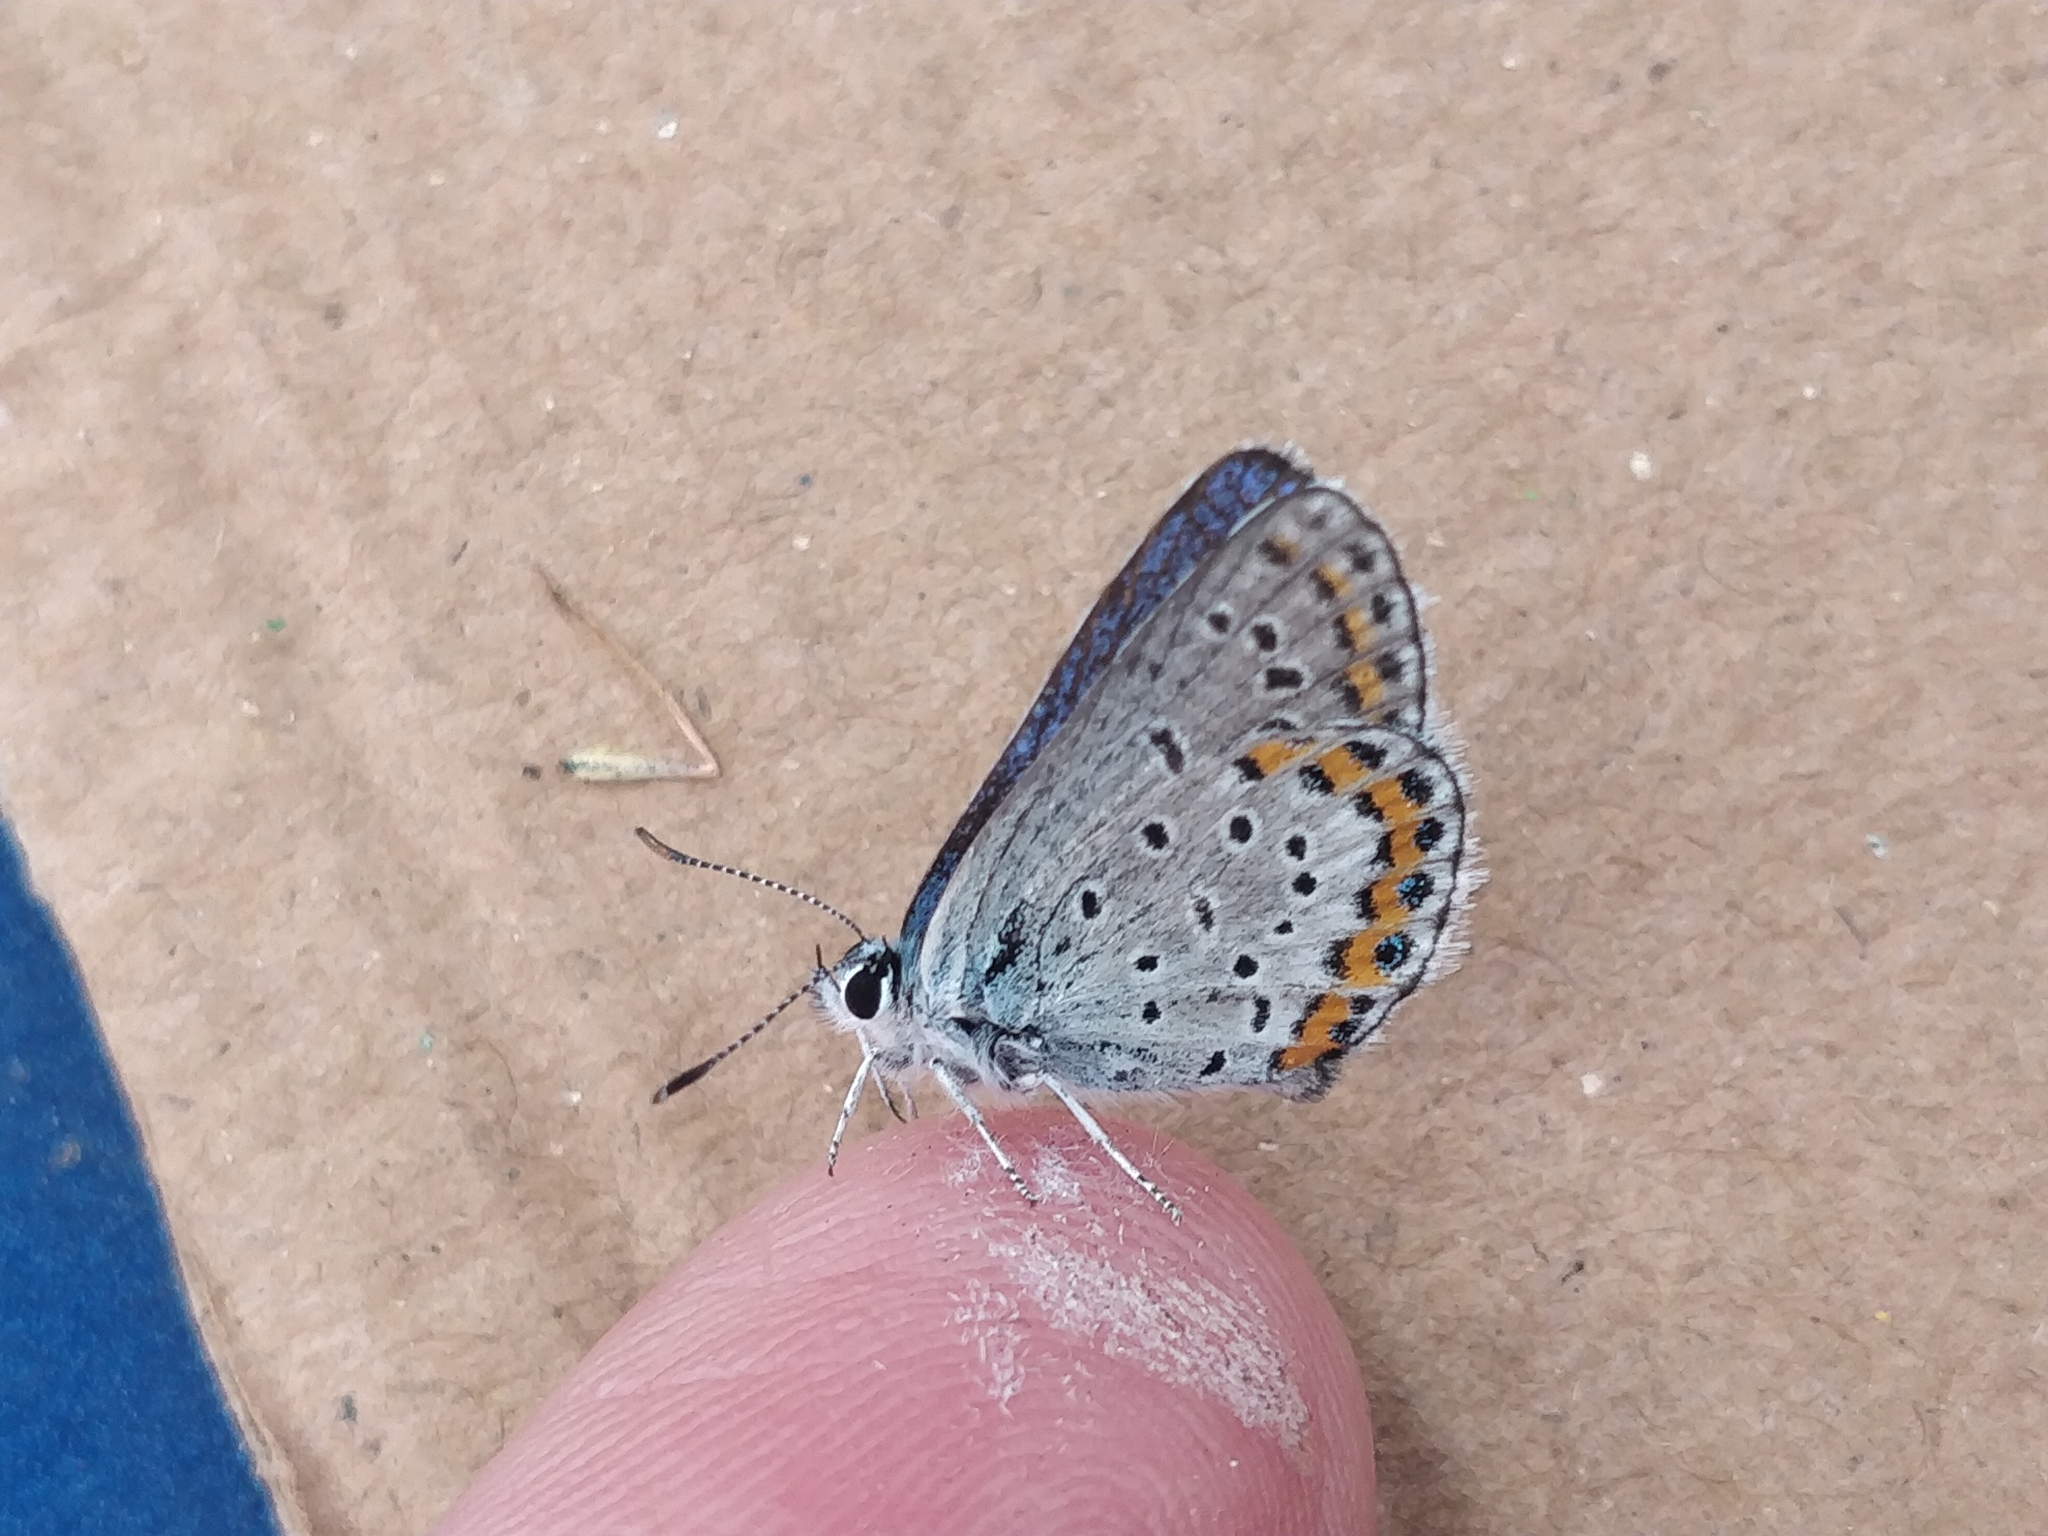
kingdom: Animalia
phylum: Arthropoda
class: Insecta
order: Lepidoptera
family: Lycaenidae
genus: Lycaeides
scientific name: Lycaeides melissa
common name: Melissa blue
